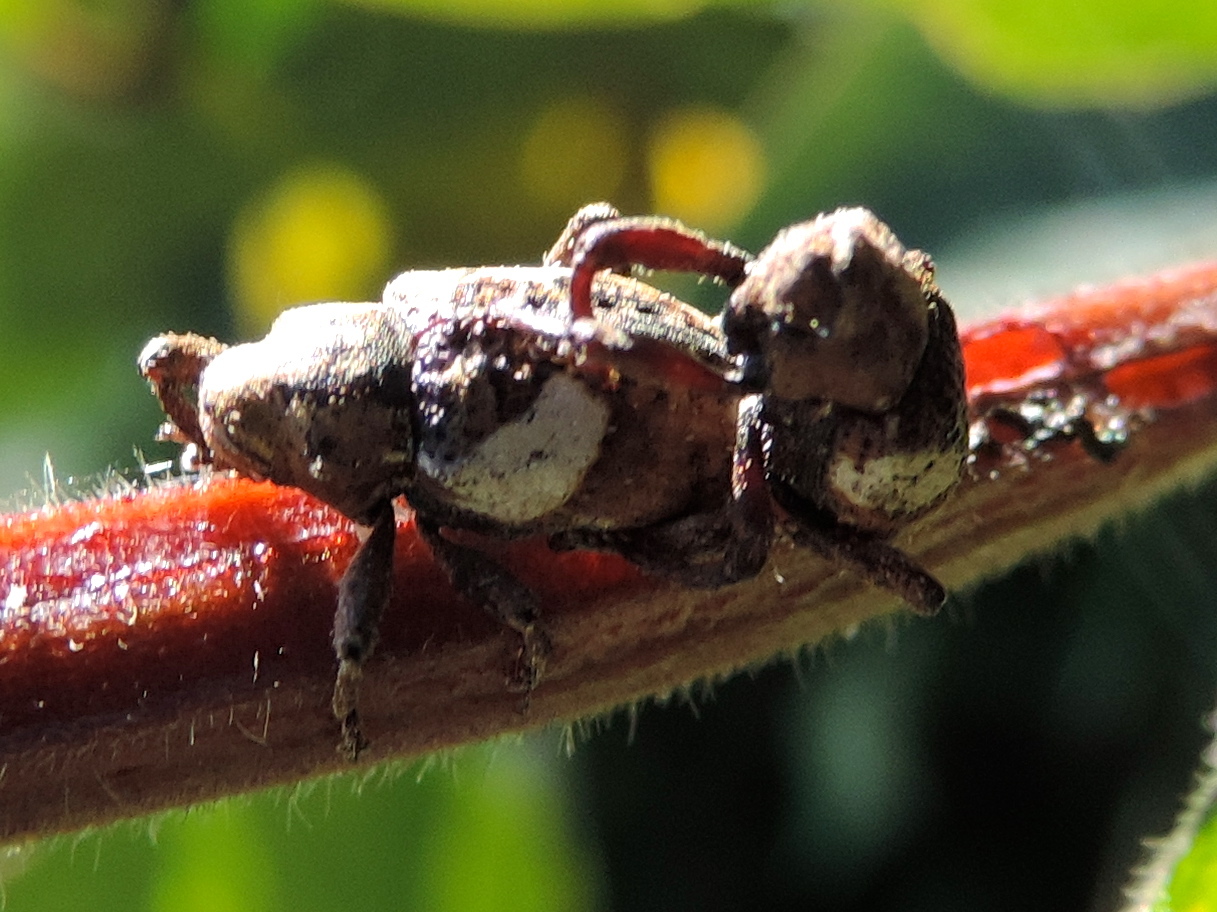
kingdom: Animalia
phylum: Arthropoda
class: Insecta
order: Coleoptera
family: Curculionidae
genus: Cryptorhynchinae
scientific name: Cryptorhynchinae
